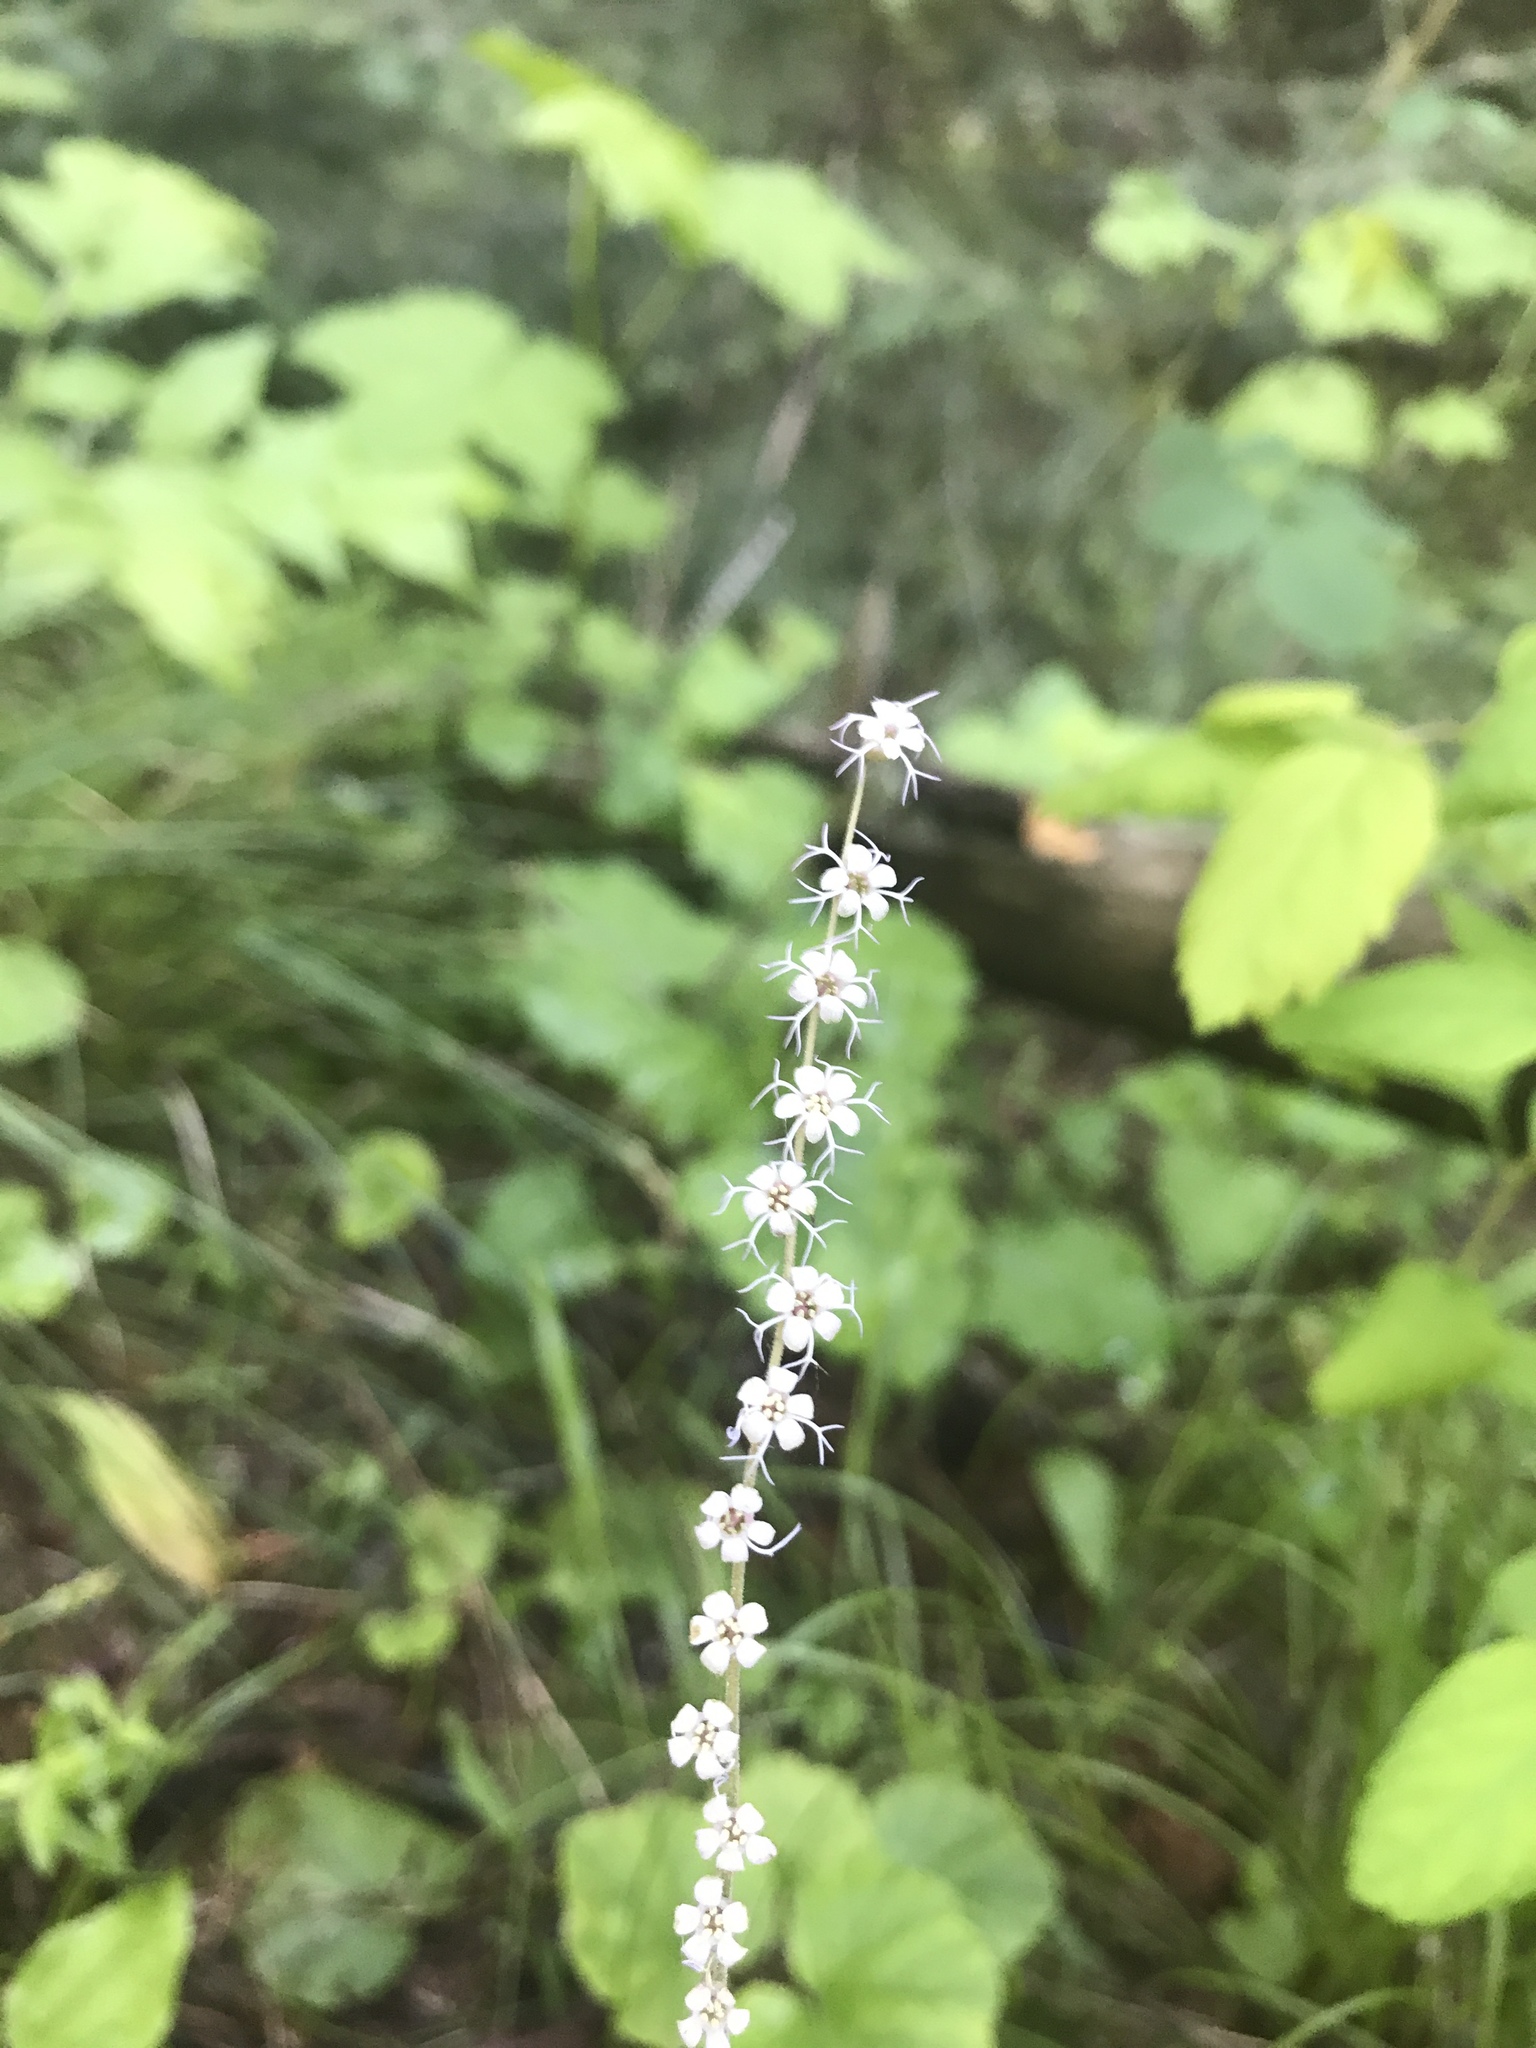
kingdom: Plantae
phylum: Tracheophyta
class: Magnoliopsida
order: Saxifragales
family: Saxifragaceae
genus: Ozomelis
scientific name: Ozomelis stauropetala
